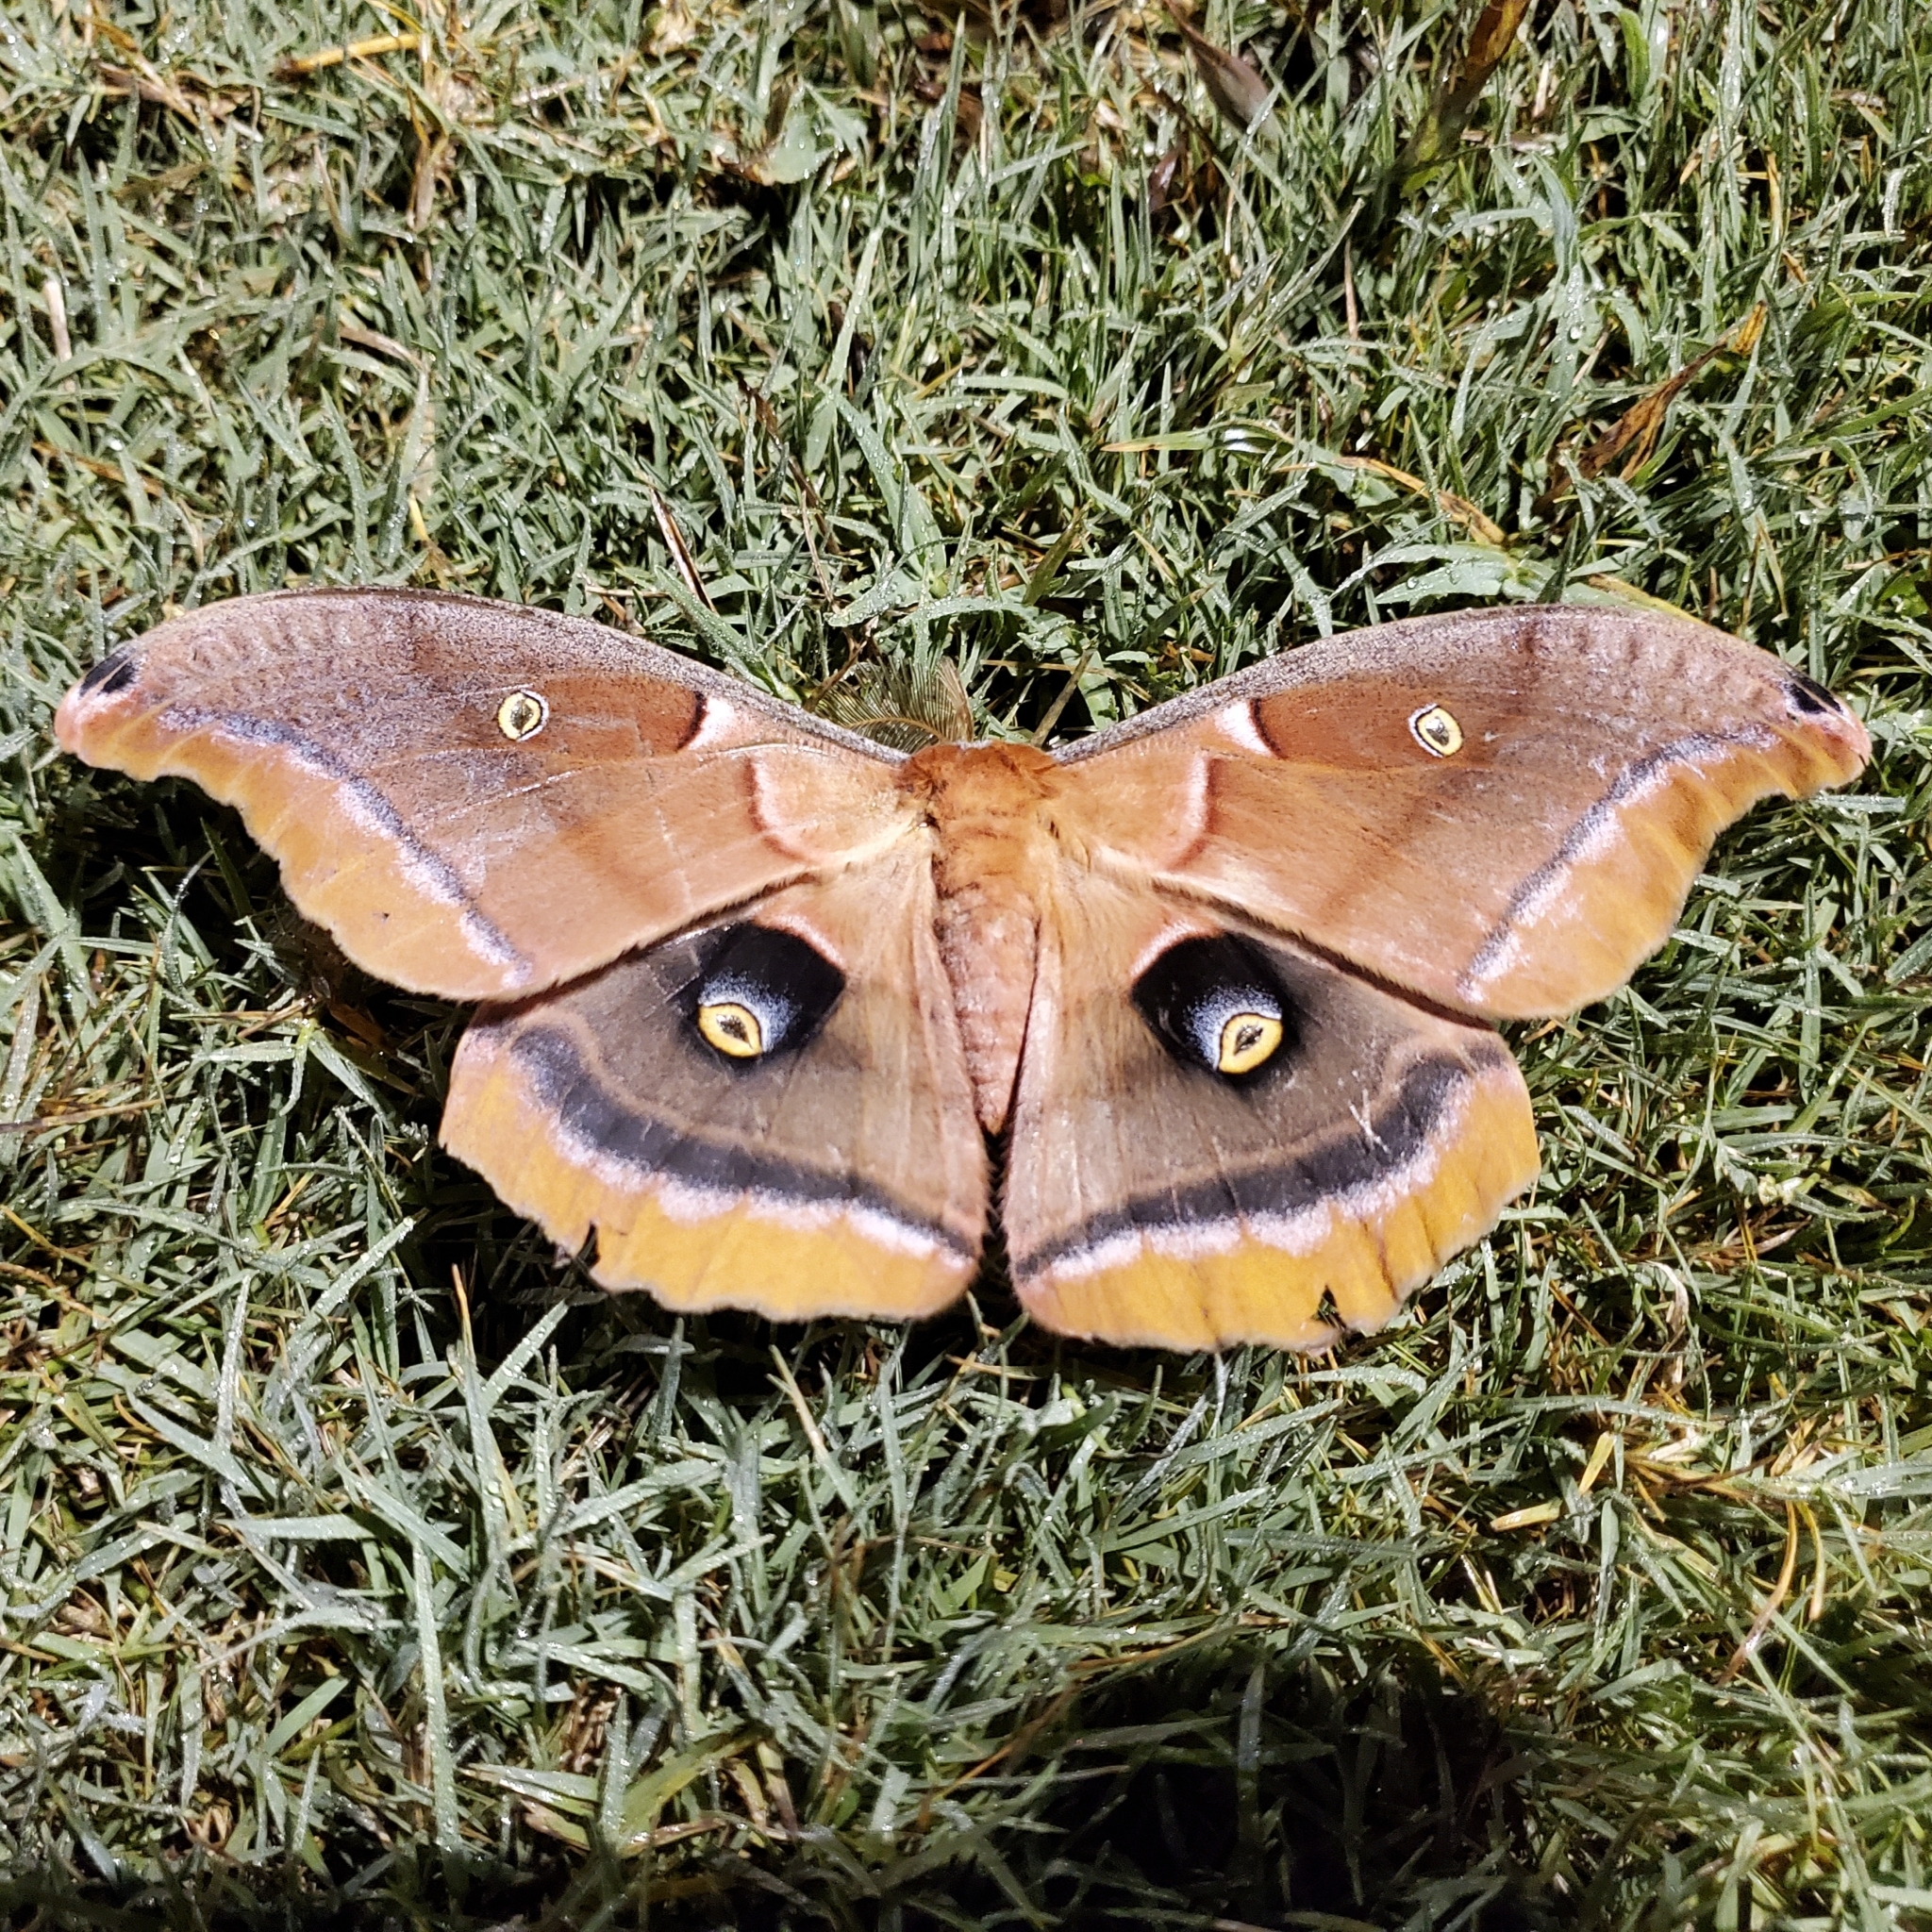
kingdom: Animalia
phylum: Arthropoda
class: Insecta
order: Lepidoptera
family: Saturniidae
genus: Antheraea
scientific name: Antheraea polyphemus
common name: Polyphemus moth
